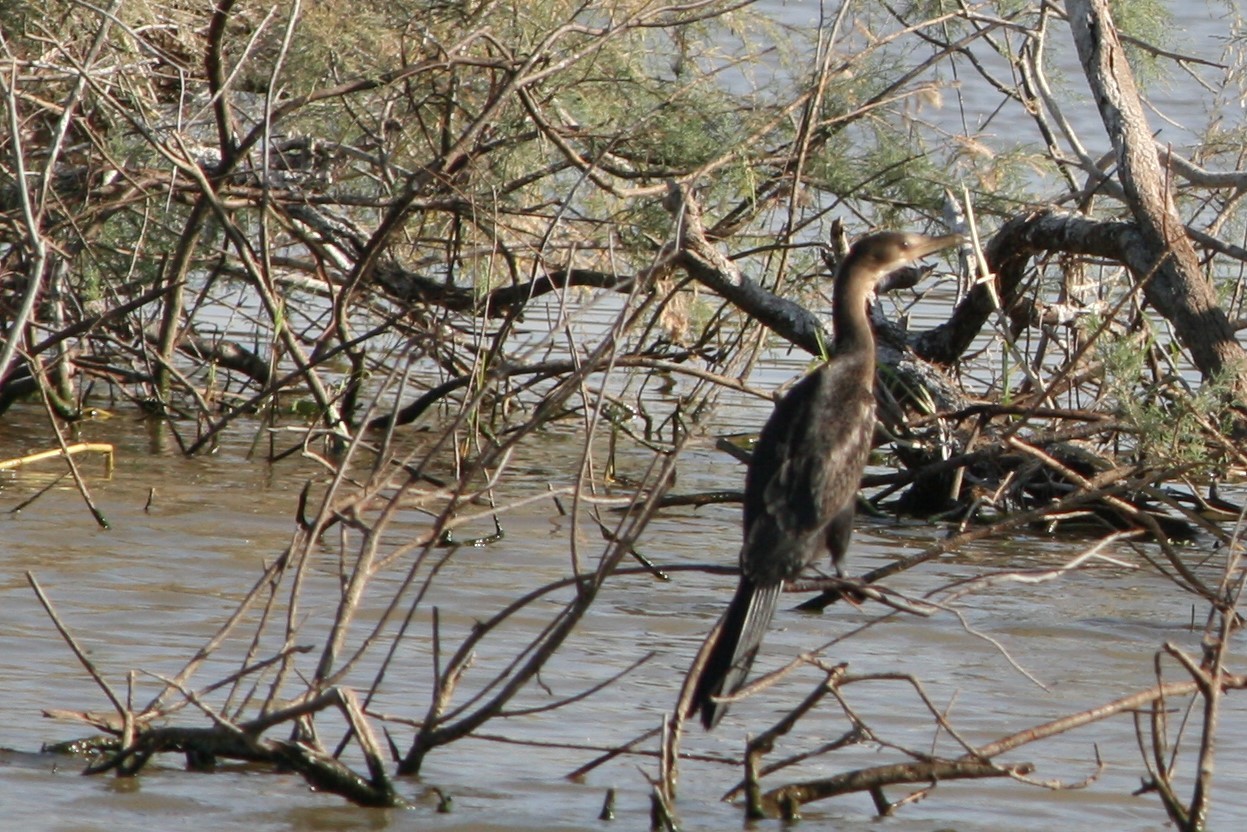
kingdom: Animalia
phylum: Chordata
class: Aves
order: Suliformes
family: Phalacrocoracidae
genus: Microcarbo
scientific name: Microcarbo africanus
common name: Long-tailed cormorant
